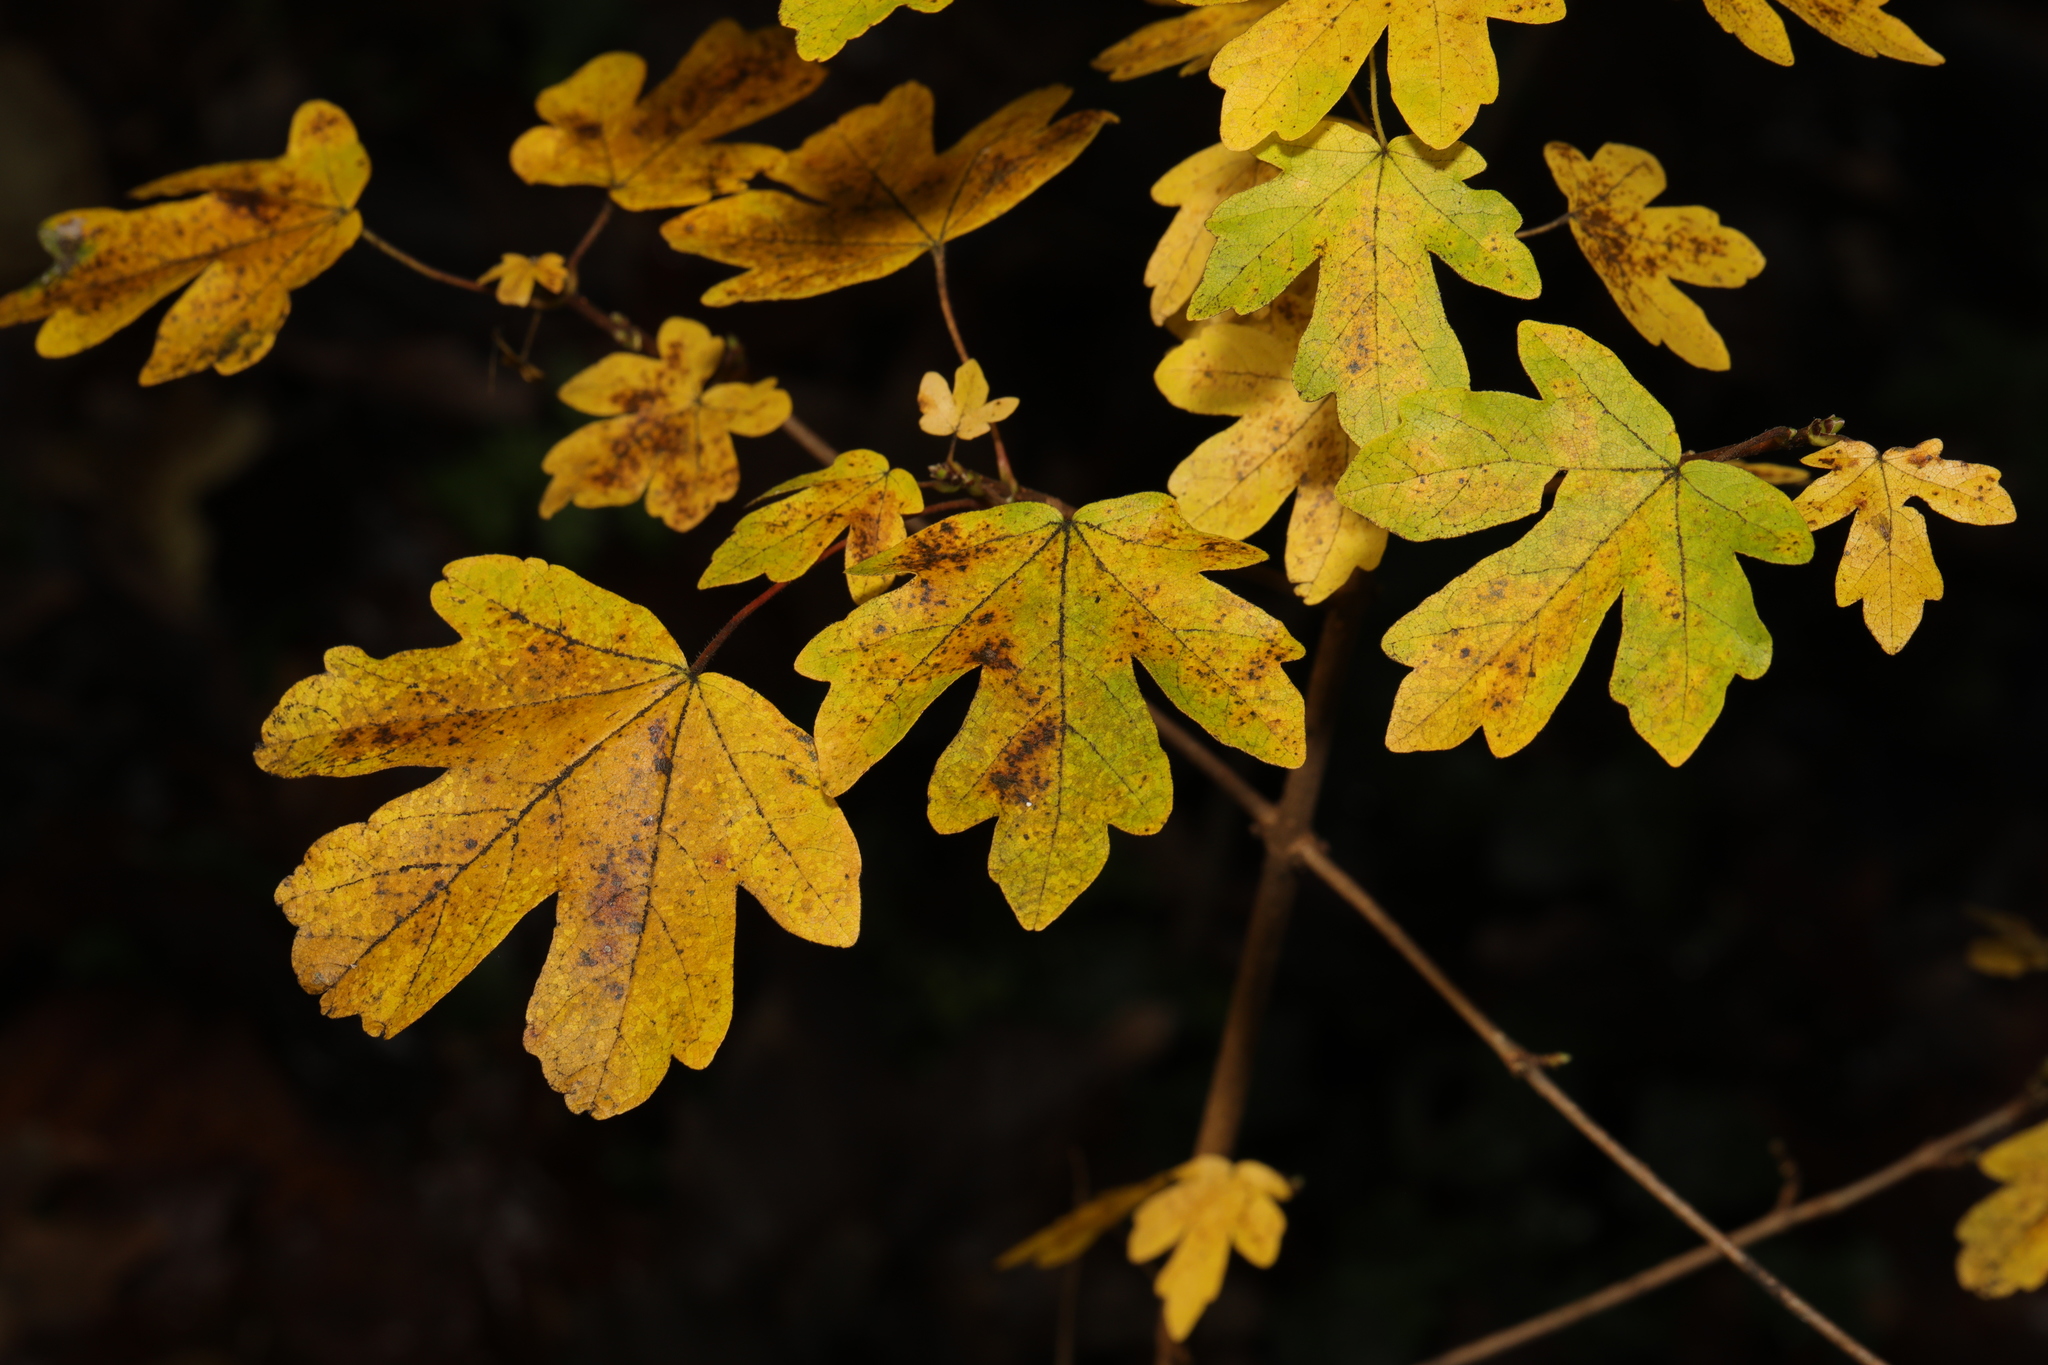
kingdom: Plantae
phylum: Tracheophyta
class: Magnoliopsida
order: Sapindales
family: Sapindaceae
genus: Acer
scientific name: Acer campestre
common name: Field maple
